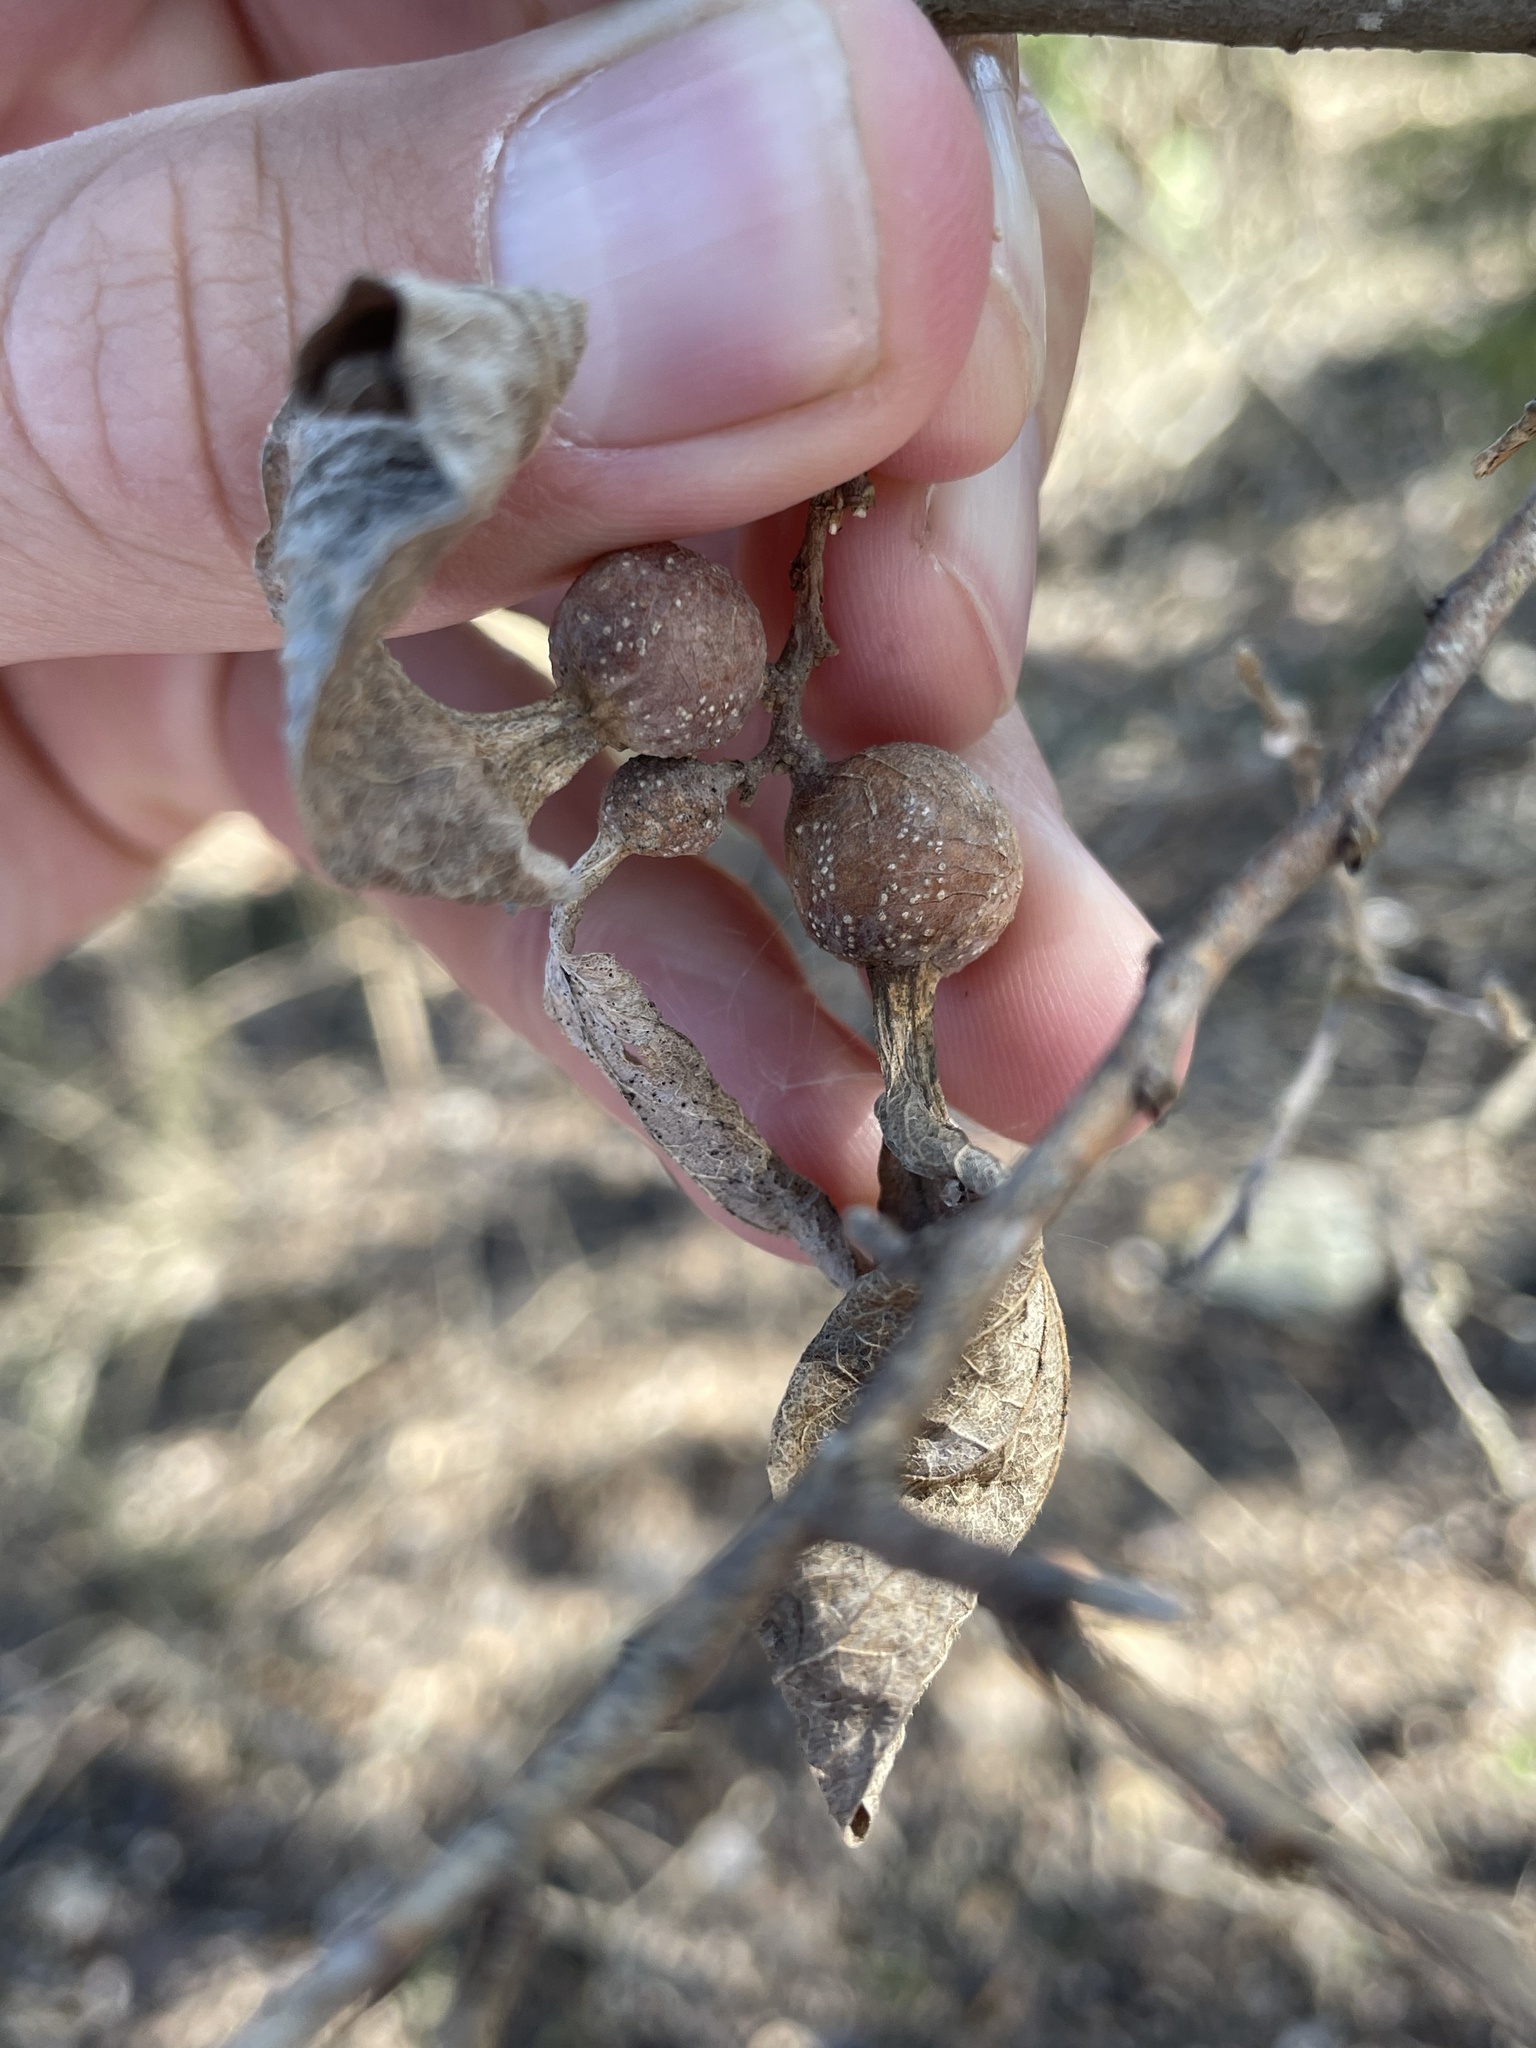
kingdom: Animalia
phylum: Arthropoda
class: Insecta
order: Hemiptera
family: Aphalaridae
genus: Pachypsylla
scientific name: Pachypsylla venusta
